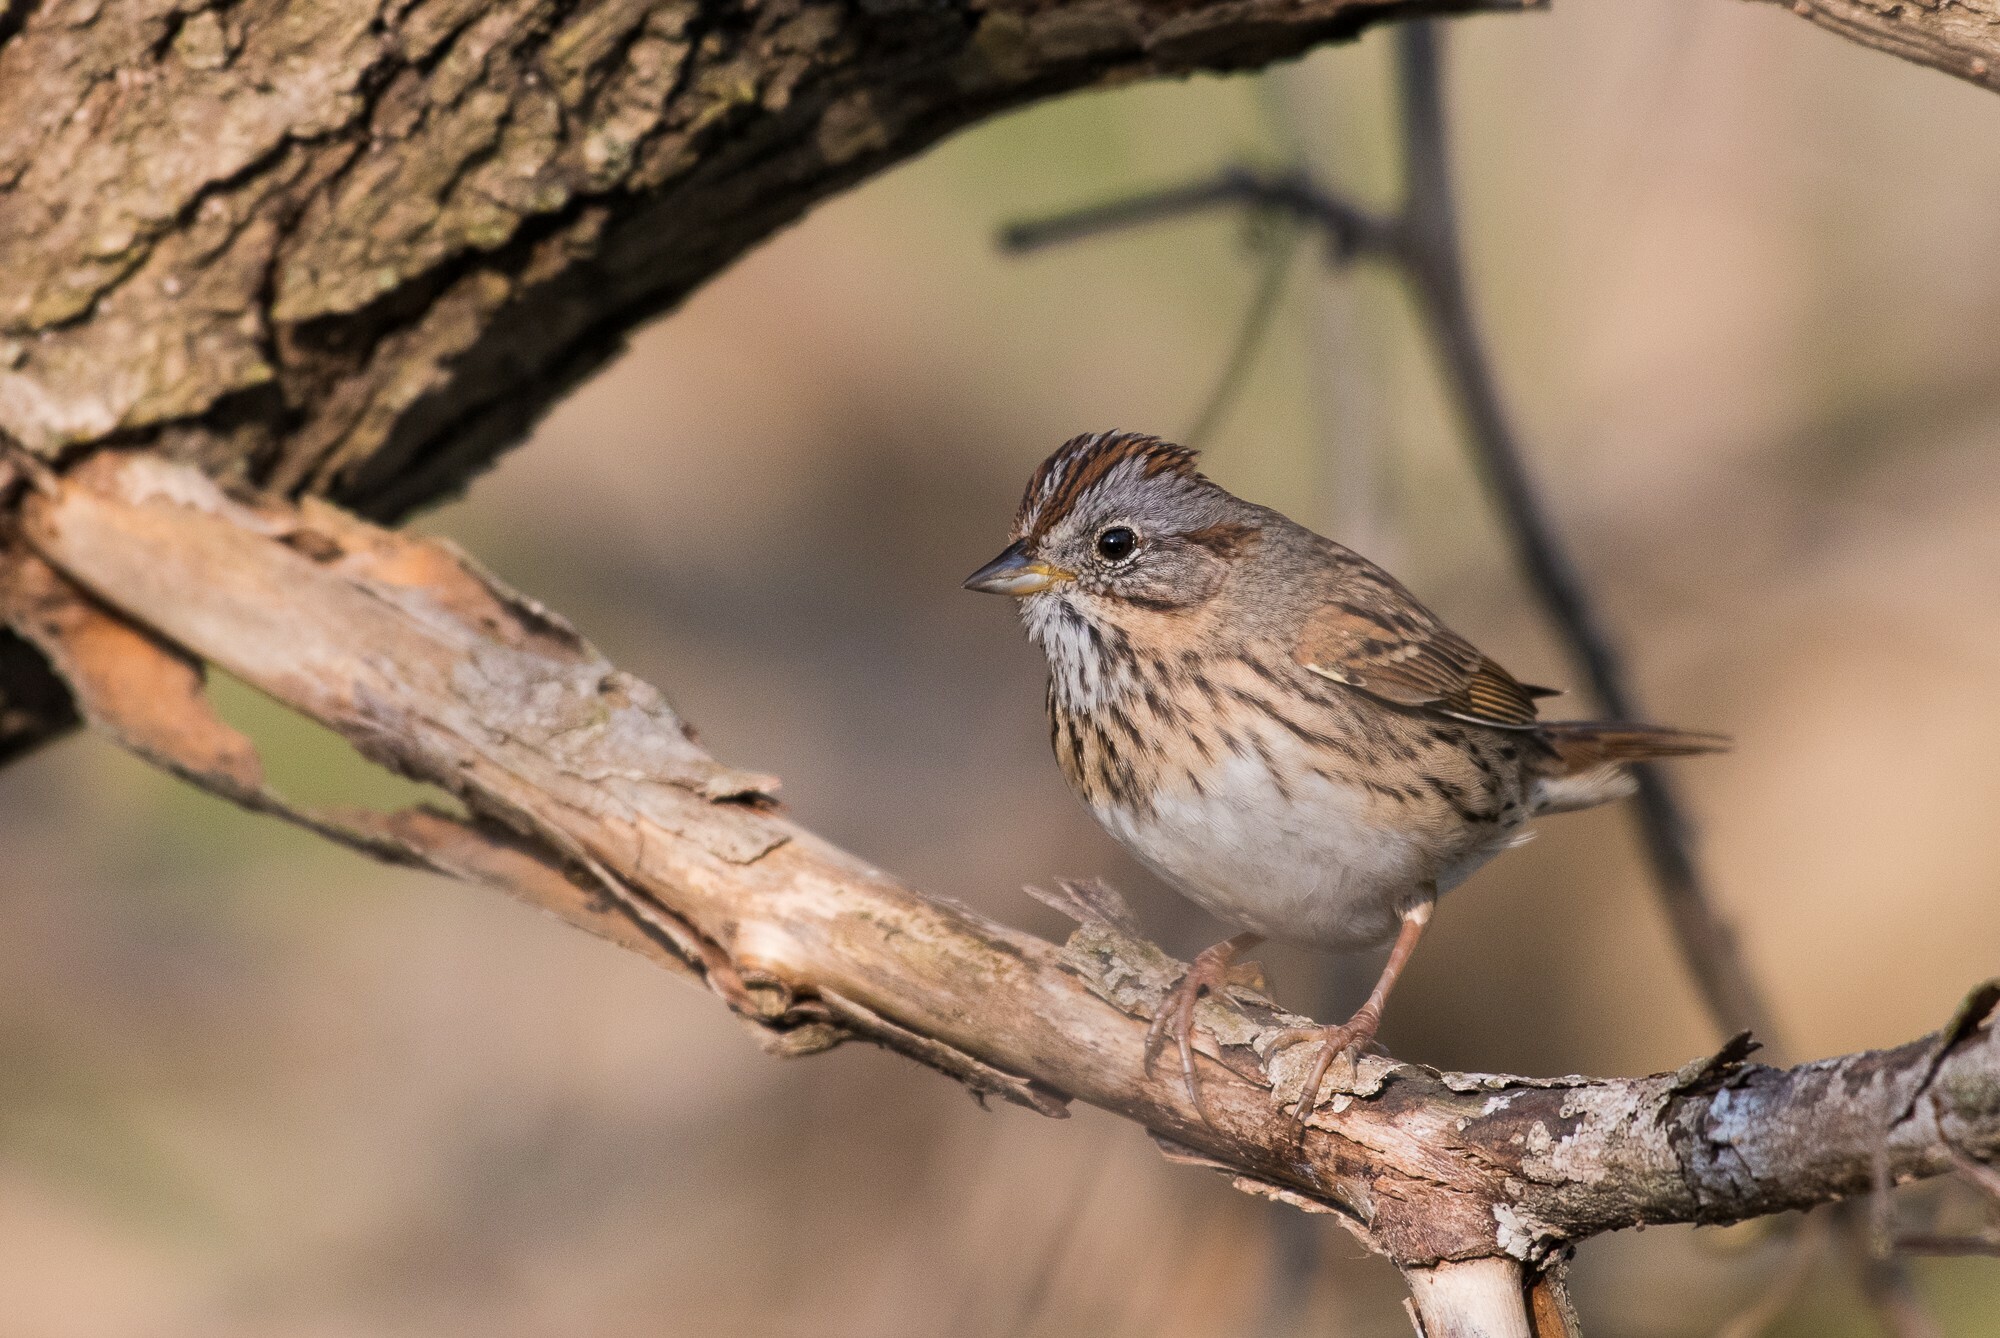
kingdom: Animalia
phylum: Chordata
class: Aves
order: Passeriformes
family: Passerellidae
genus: Melospiza
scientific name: Melospiza lincolnii
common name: Lincoln's sparrow
